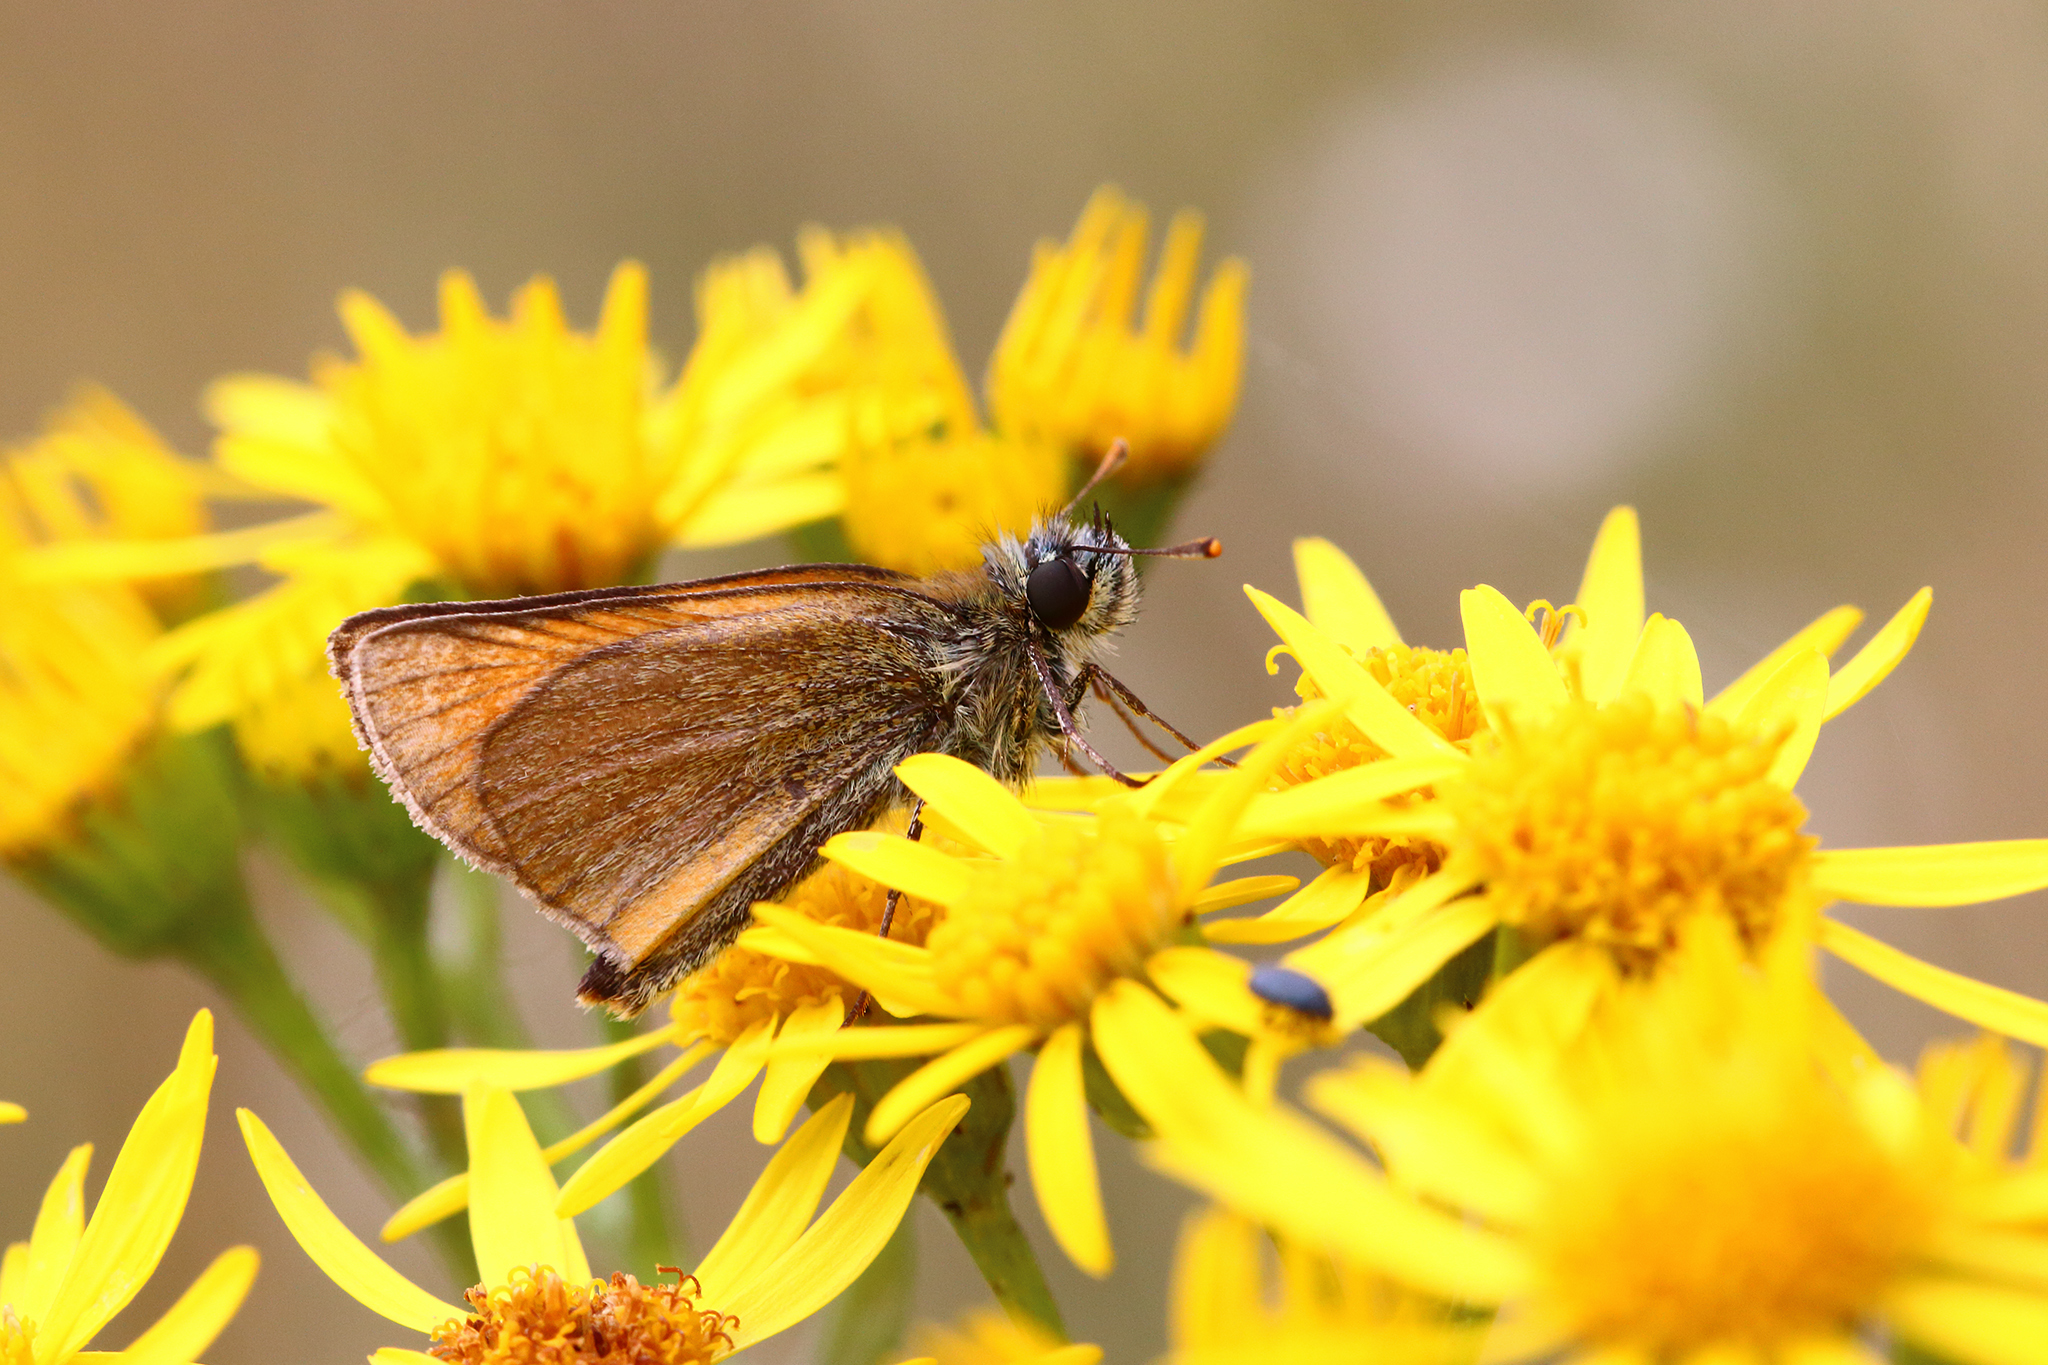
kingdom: Animalia
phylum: Arthropoda
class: Insecta
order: Lepidoptera
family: Hesperiidae
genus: Thymelicus
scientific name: Thymelicus sylvestris
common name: Small skipper
